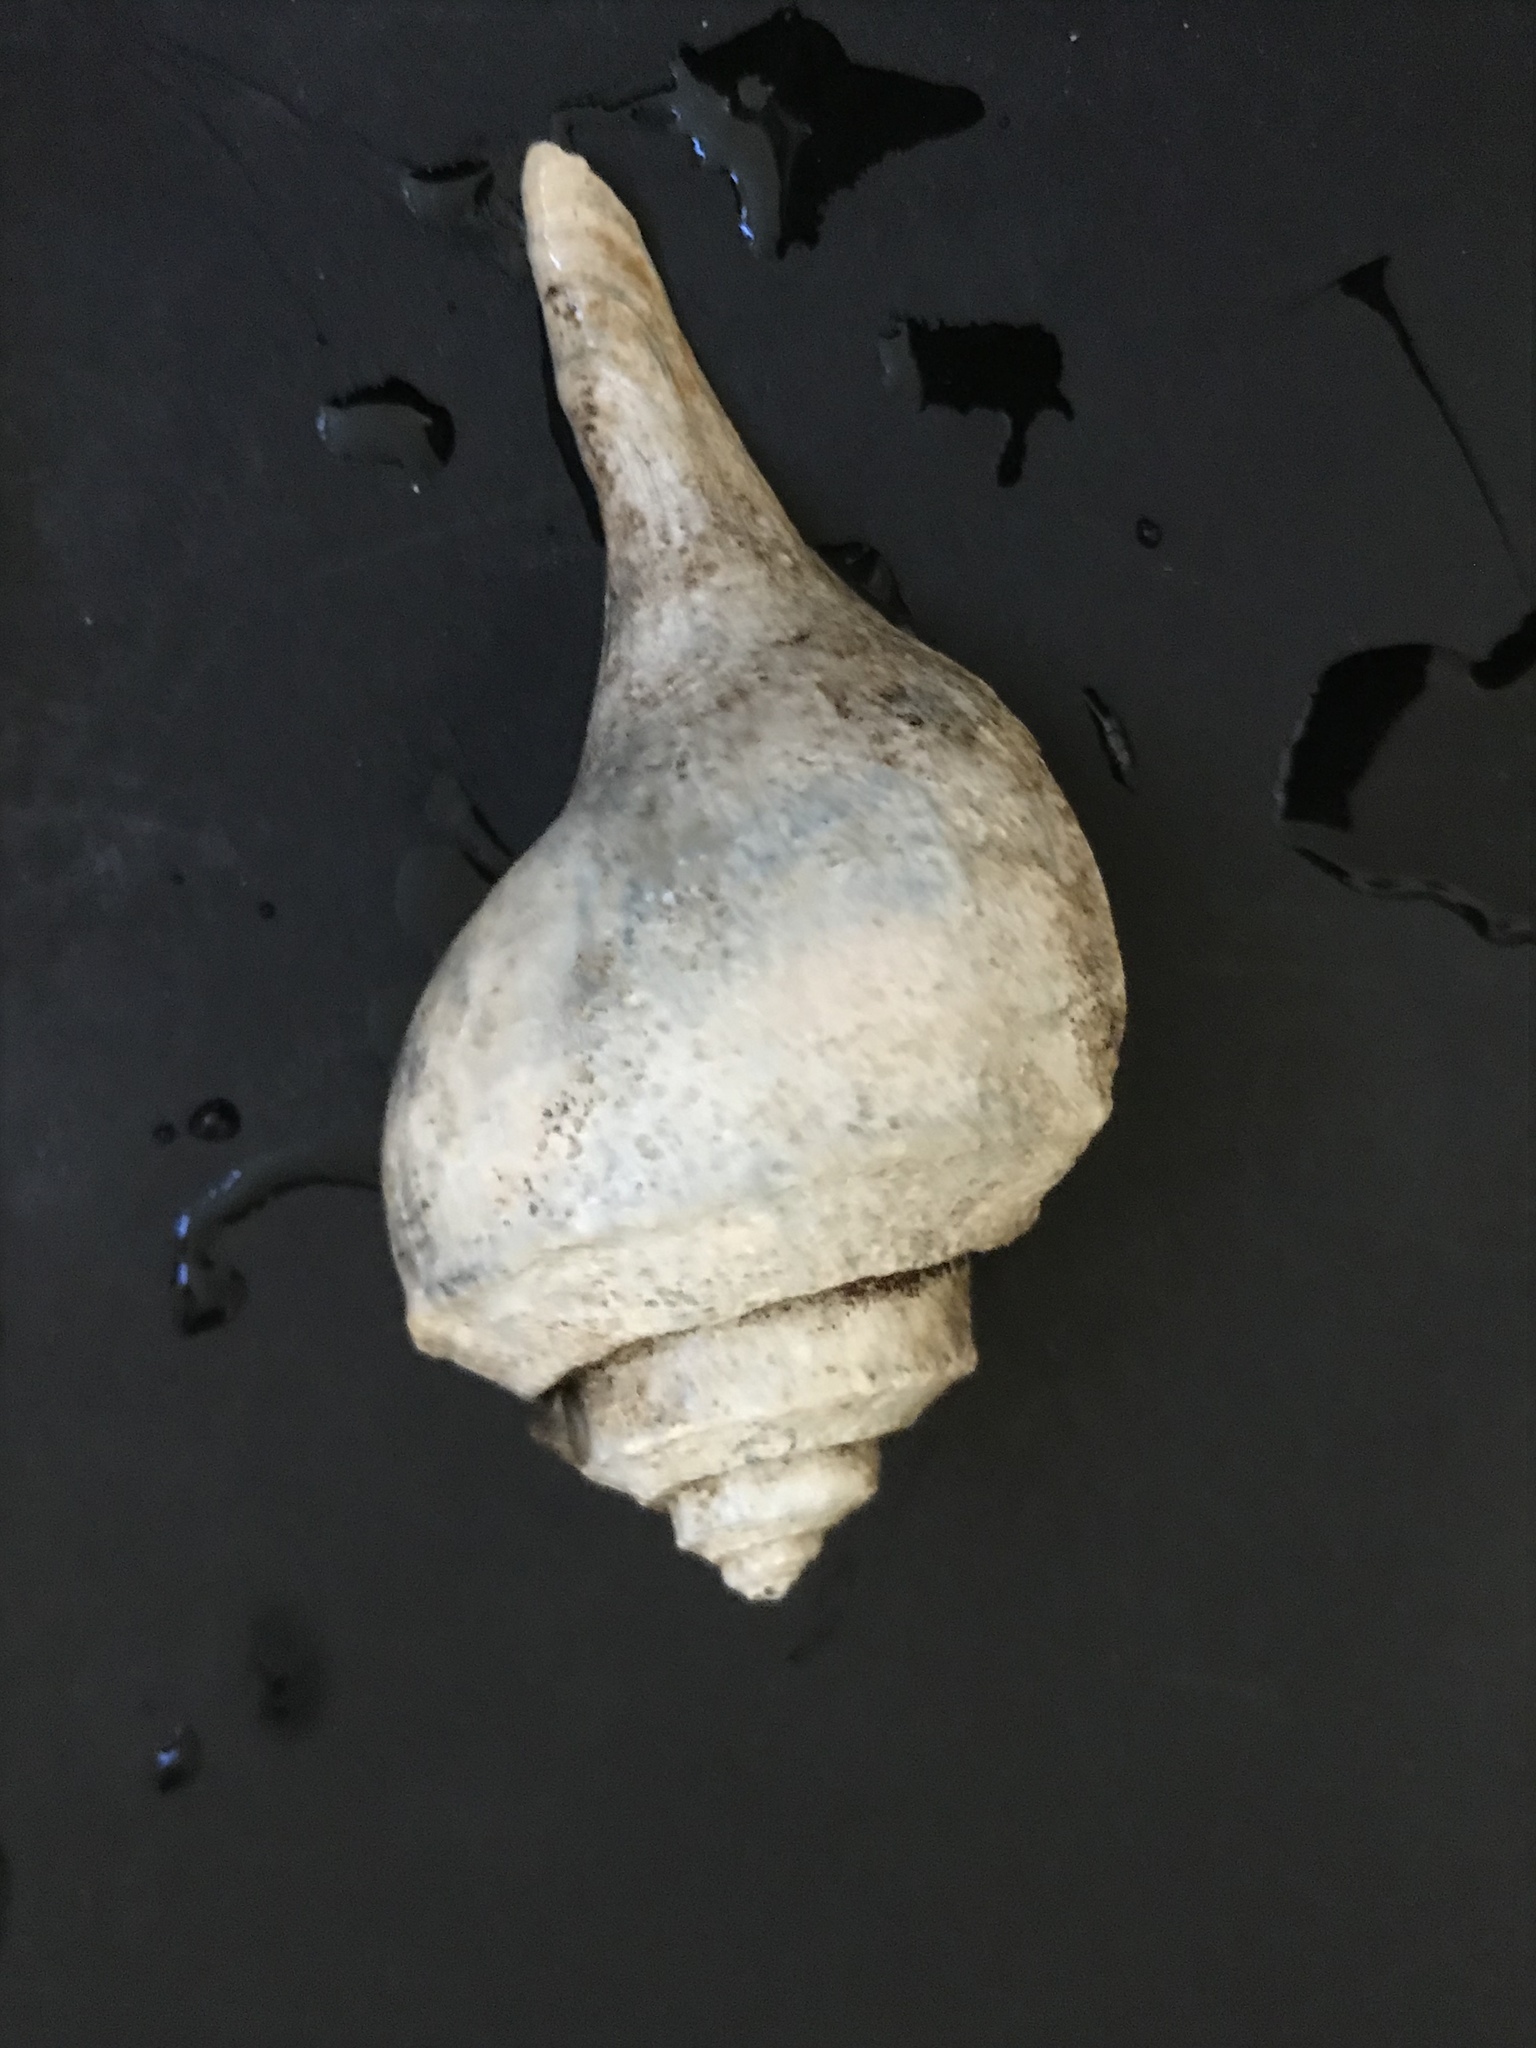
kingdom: Animalia
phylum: Mollusca
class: Gastropoda
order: Neogastropoda
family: Busyconidae
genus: Busycotypus
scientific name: Busycotypus canaliculatus
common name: Channeled whelk
